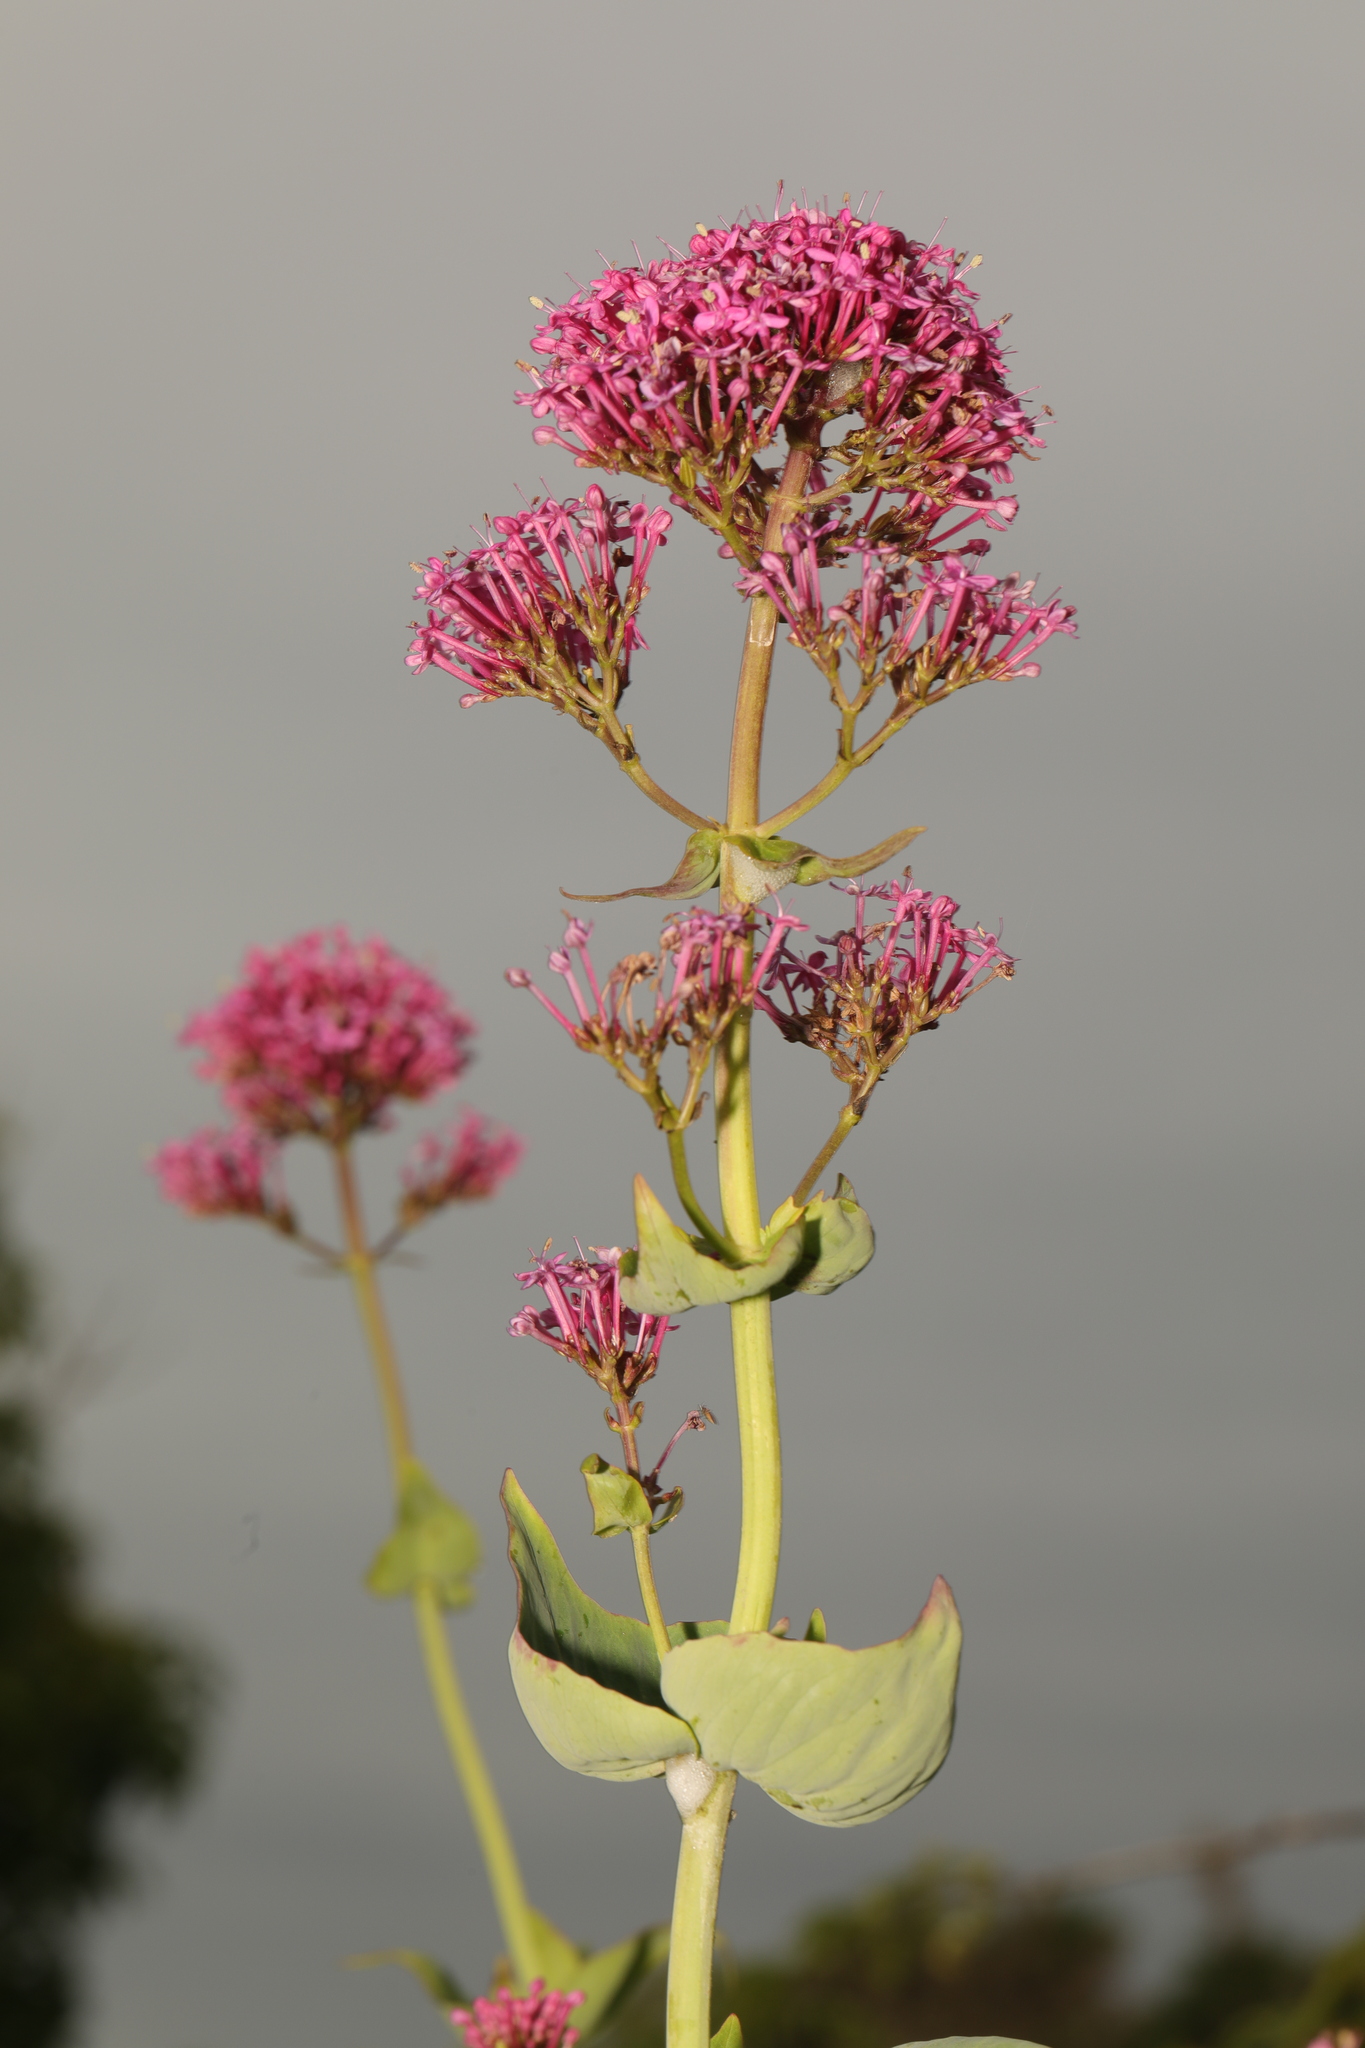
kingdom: Plantae
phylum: Tracheophyta
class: Magnoliopsida
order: Dipsacales
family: Caprifoliaceae
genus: Centranthus
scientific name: Centranthus ruber
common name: Red valerian
